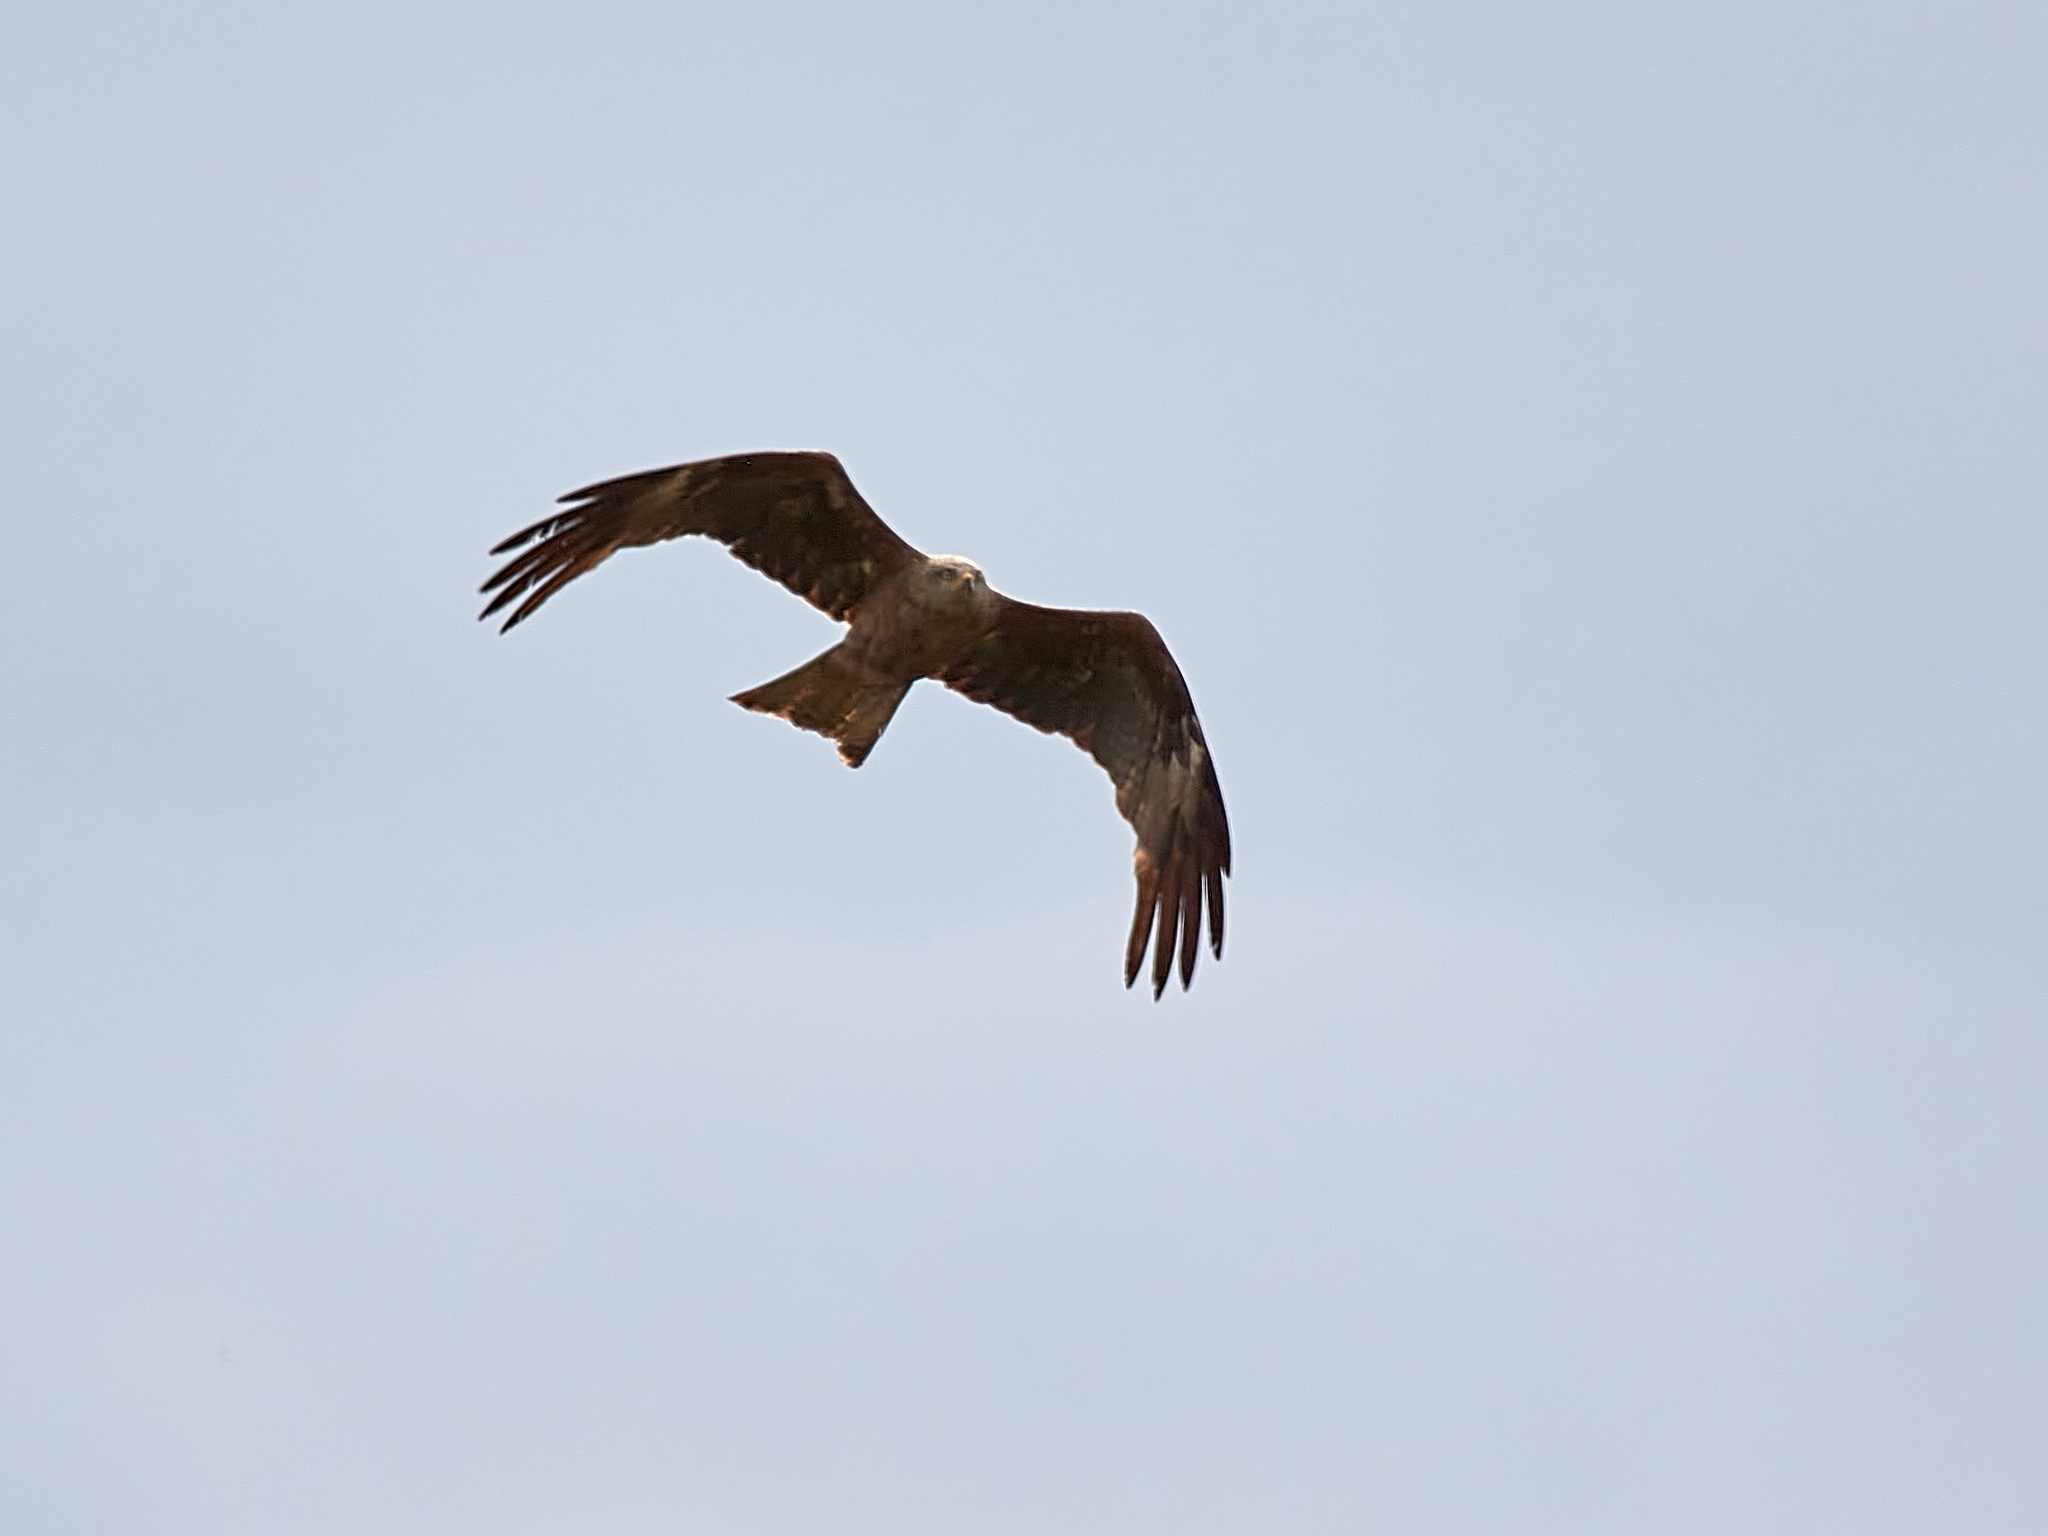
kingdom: Animalia
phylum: Chordata
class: Aves
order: Accipitriformes
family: Accipitridae
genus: Milvus
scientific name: Milvus migrans
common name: Black kite
